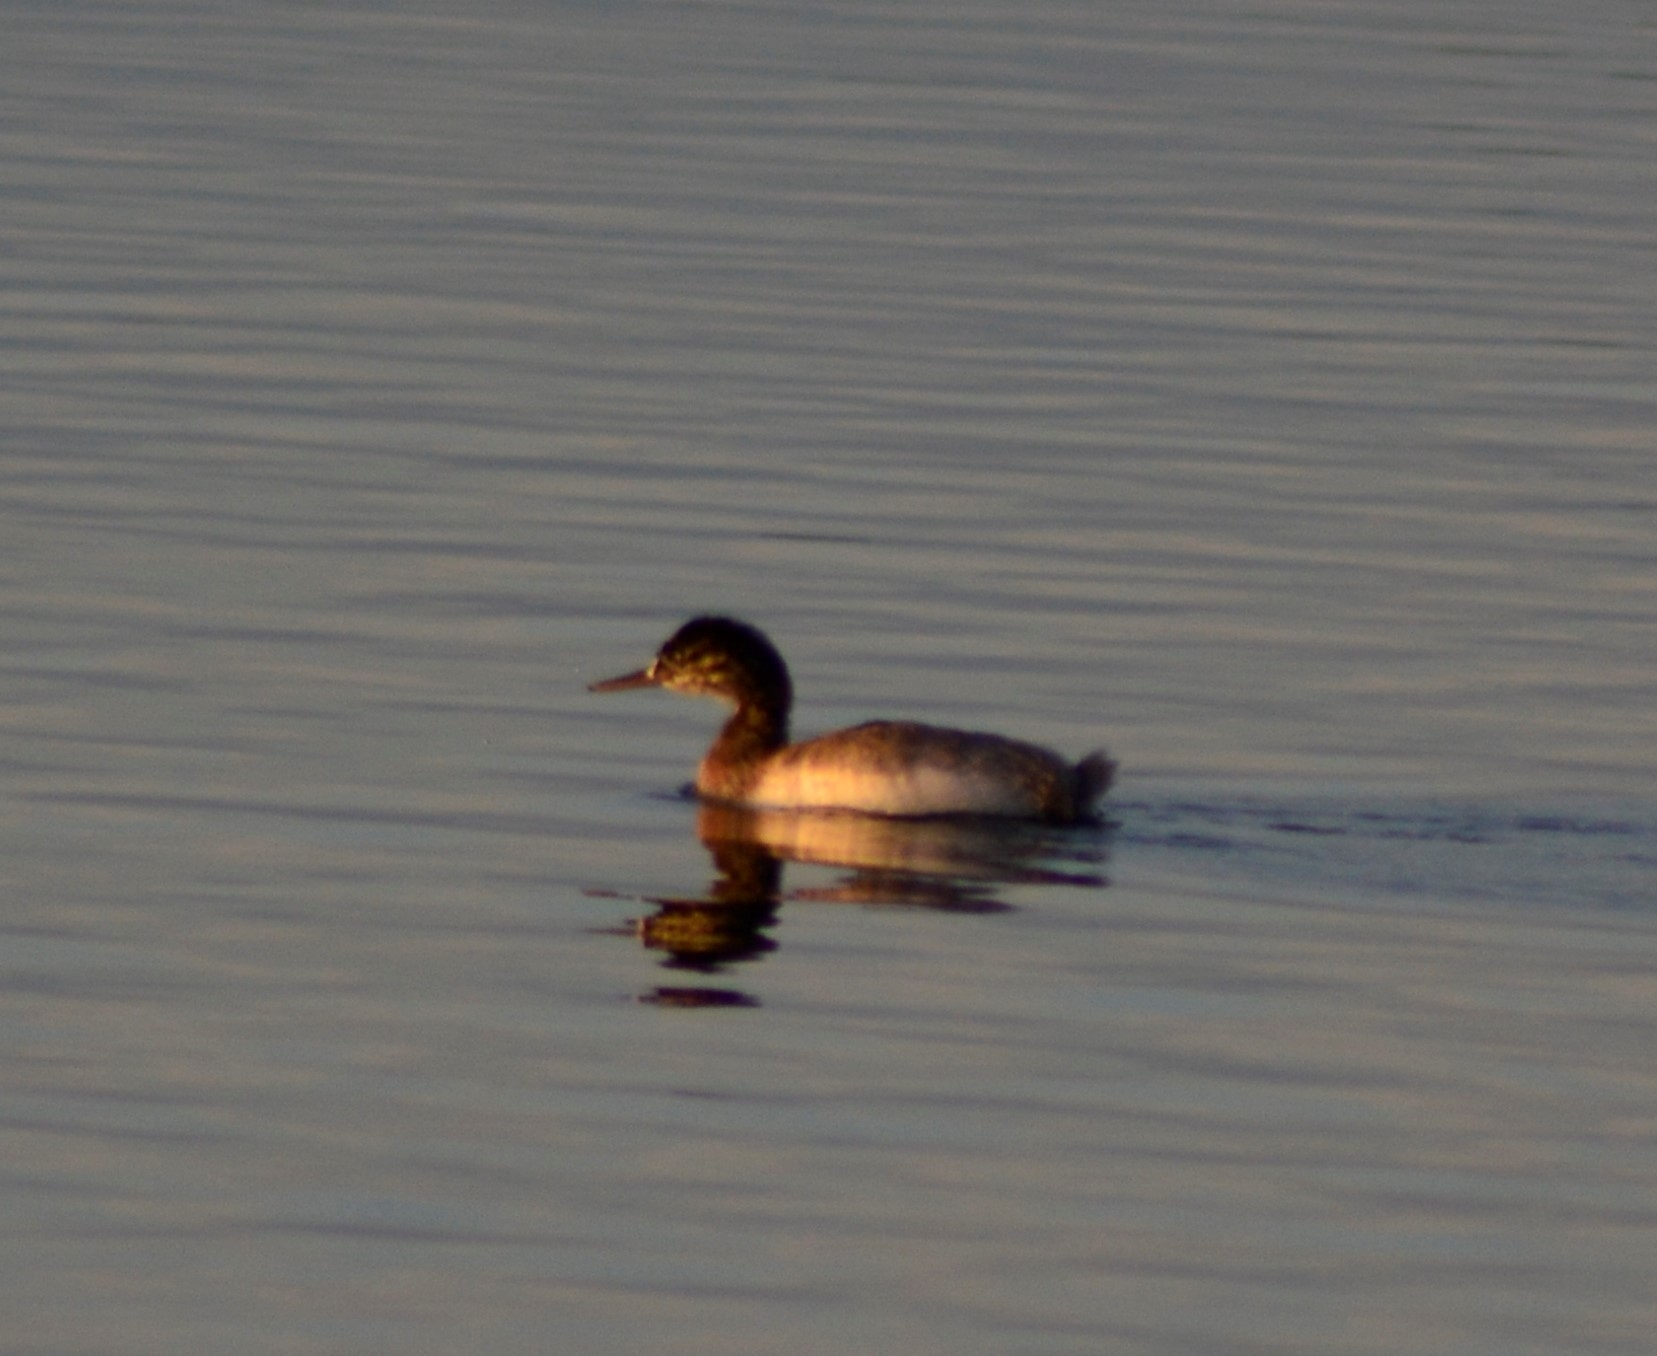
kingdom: Animalia
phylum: Chordata
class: Aves
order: Podicipediformes
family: Podicipedidae
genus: Podiceps
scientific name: Podiceps major
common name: Great grebe
